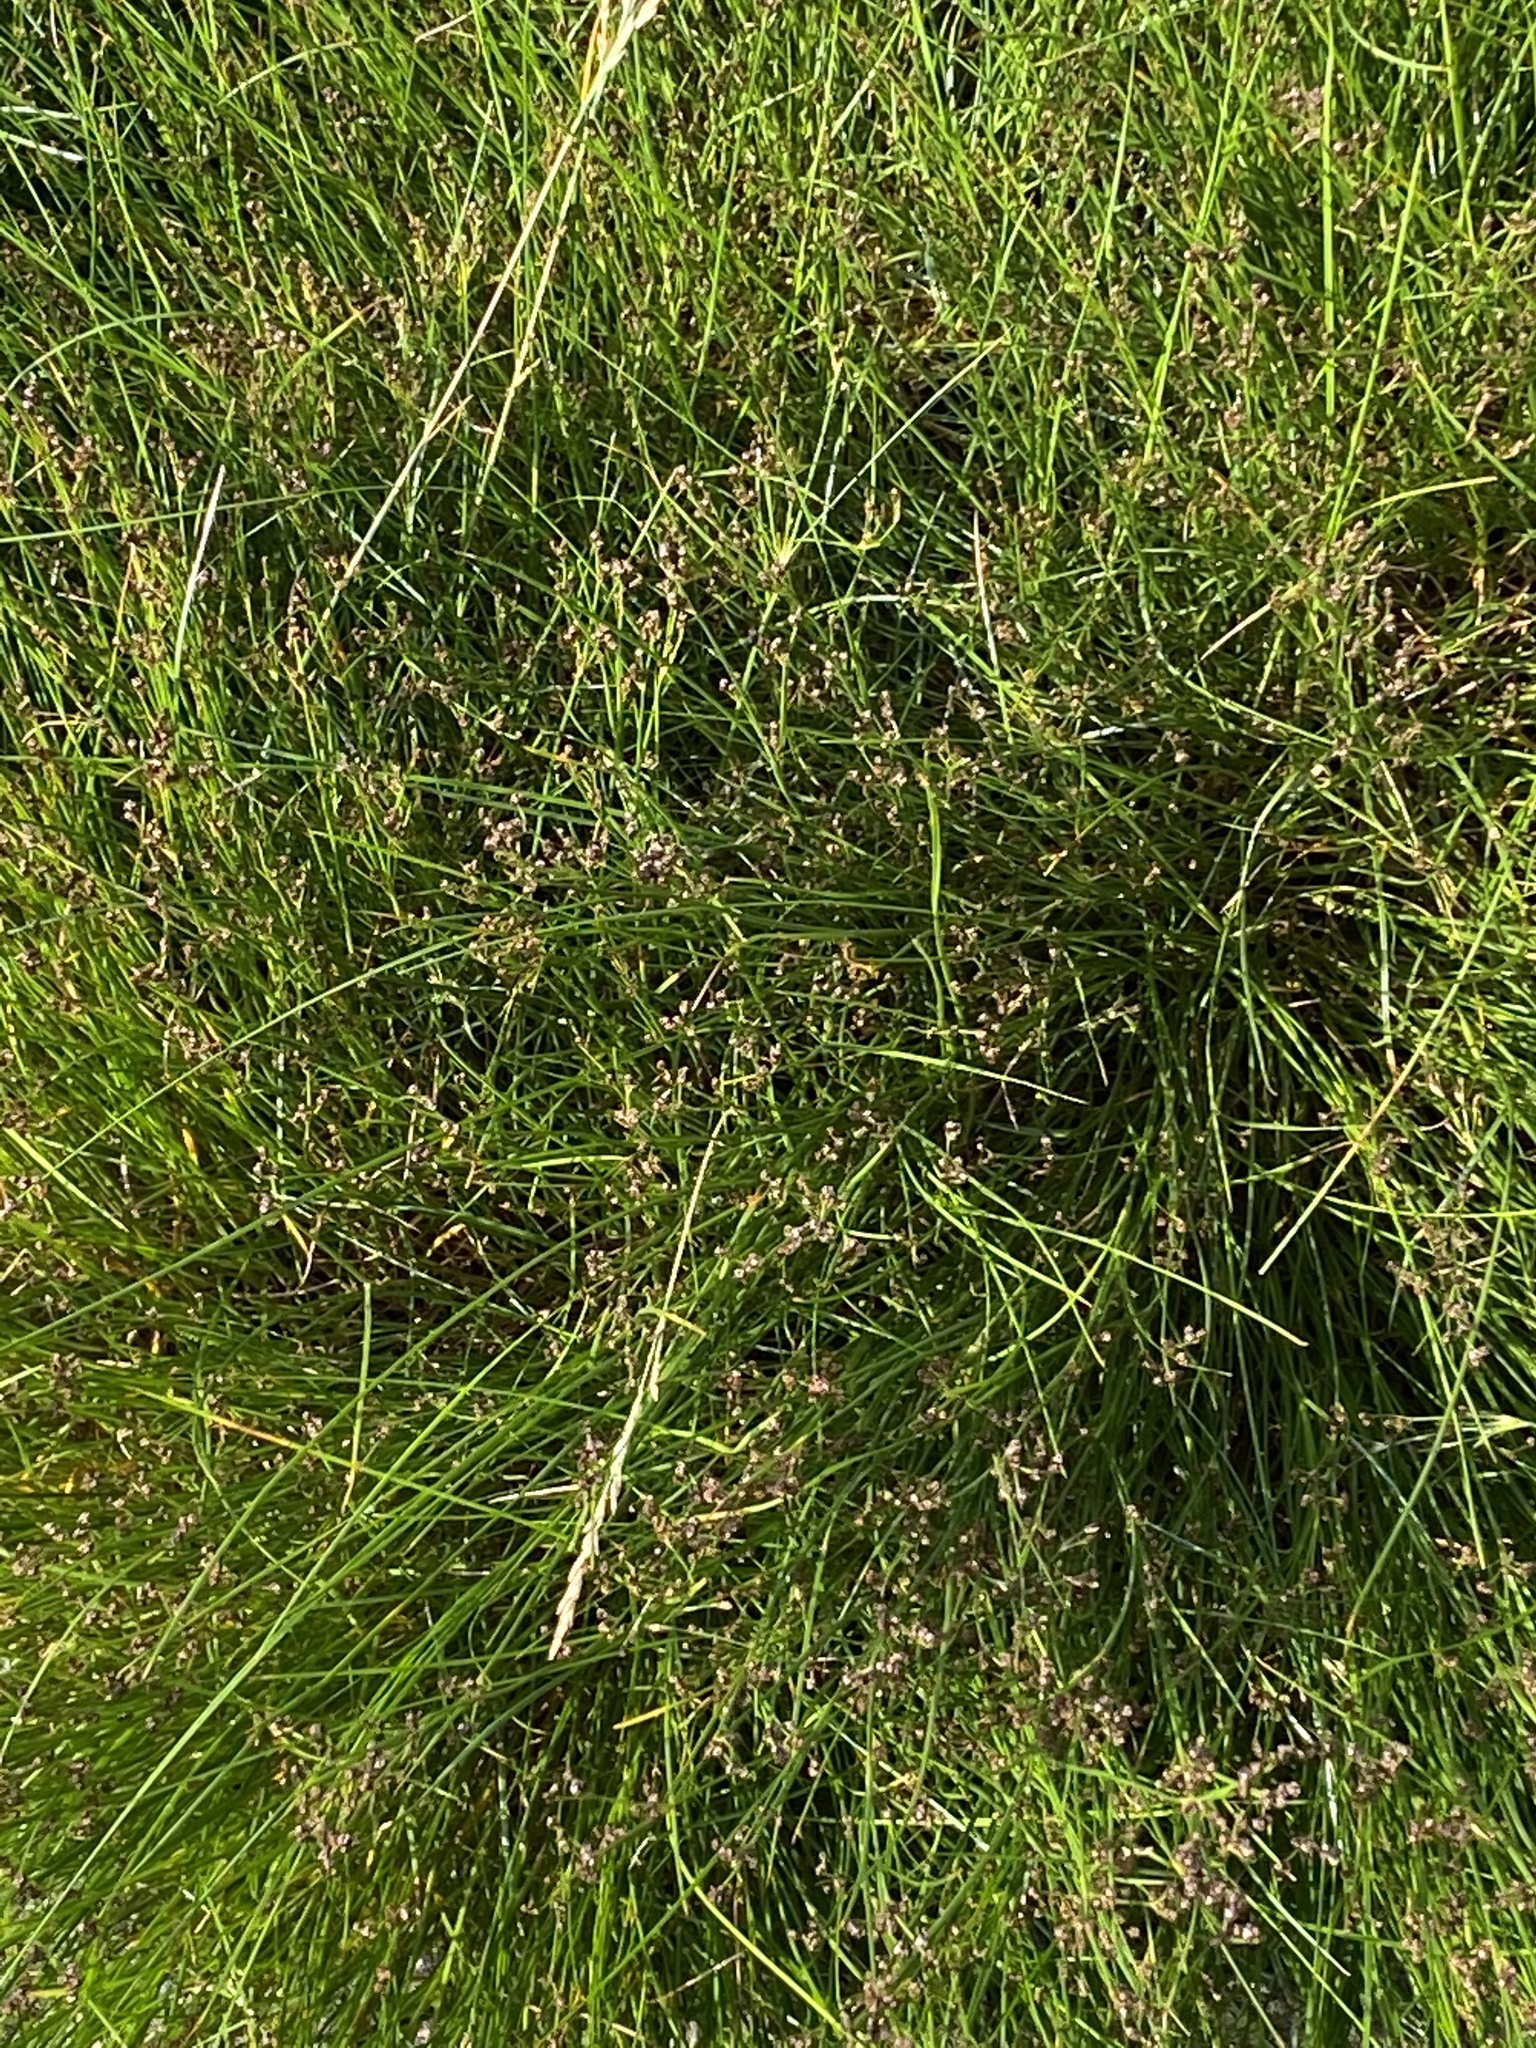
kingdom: Plantae
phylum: Tracheophyta
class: Liliopsida
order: Poales
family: Cyperaceae
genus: Bolboschoenus
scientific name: Bolboschoenus maritimus
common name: Sea club-rush
